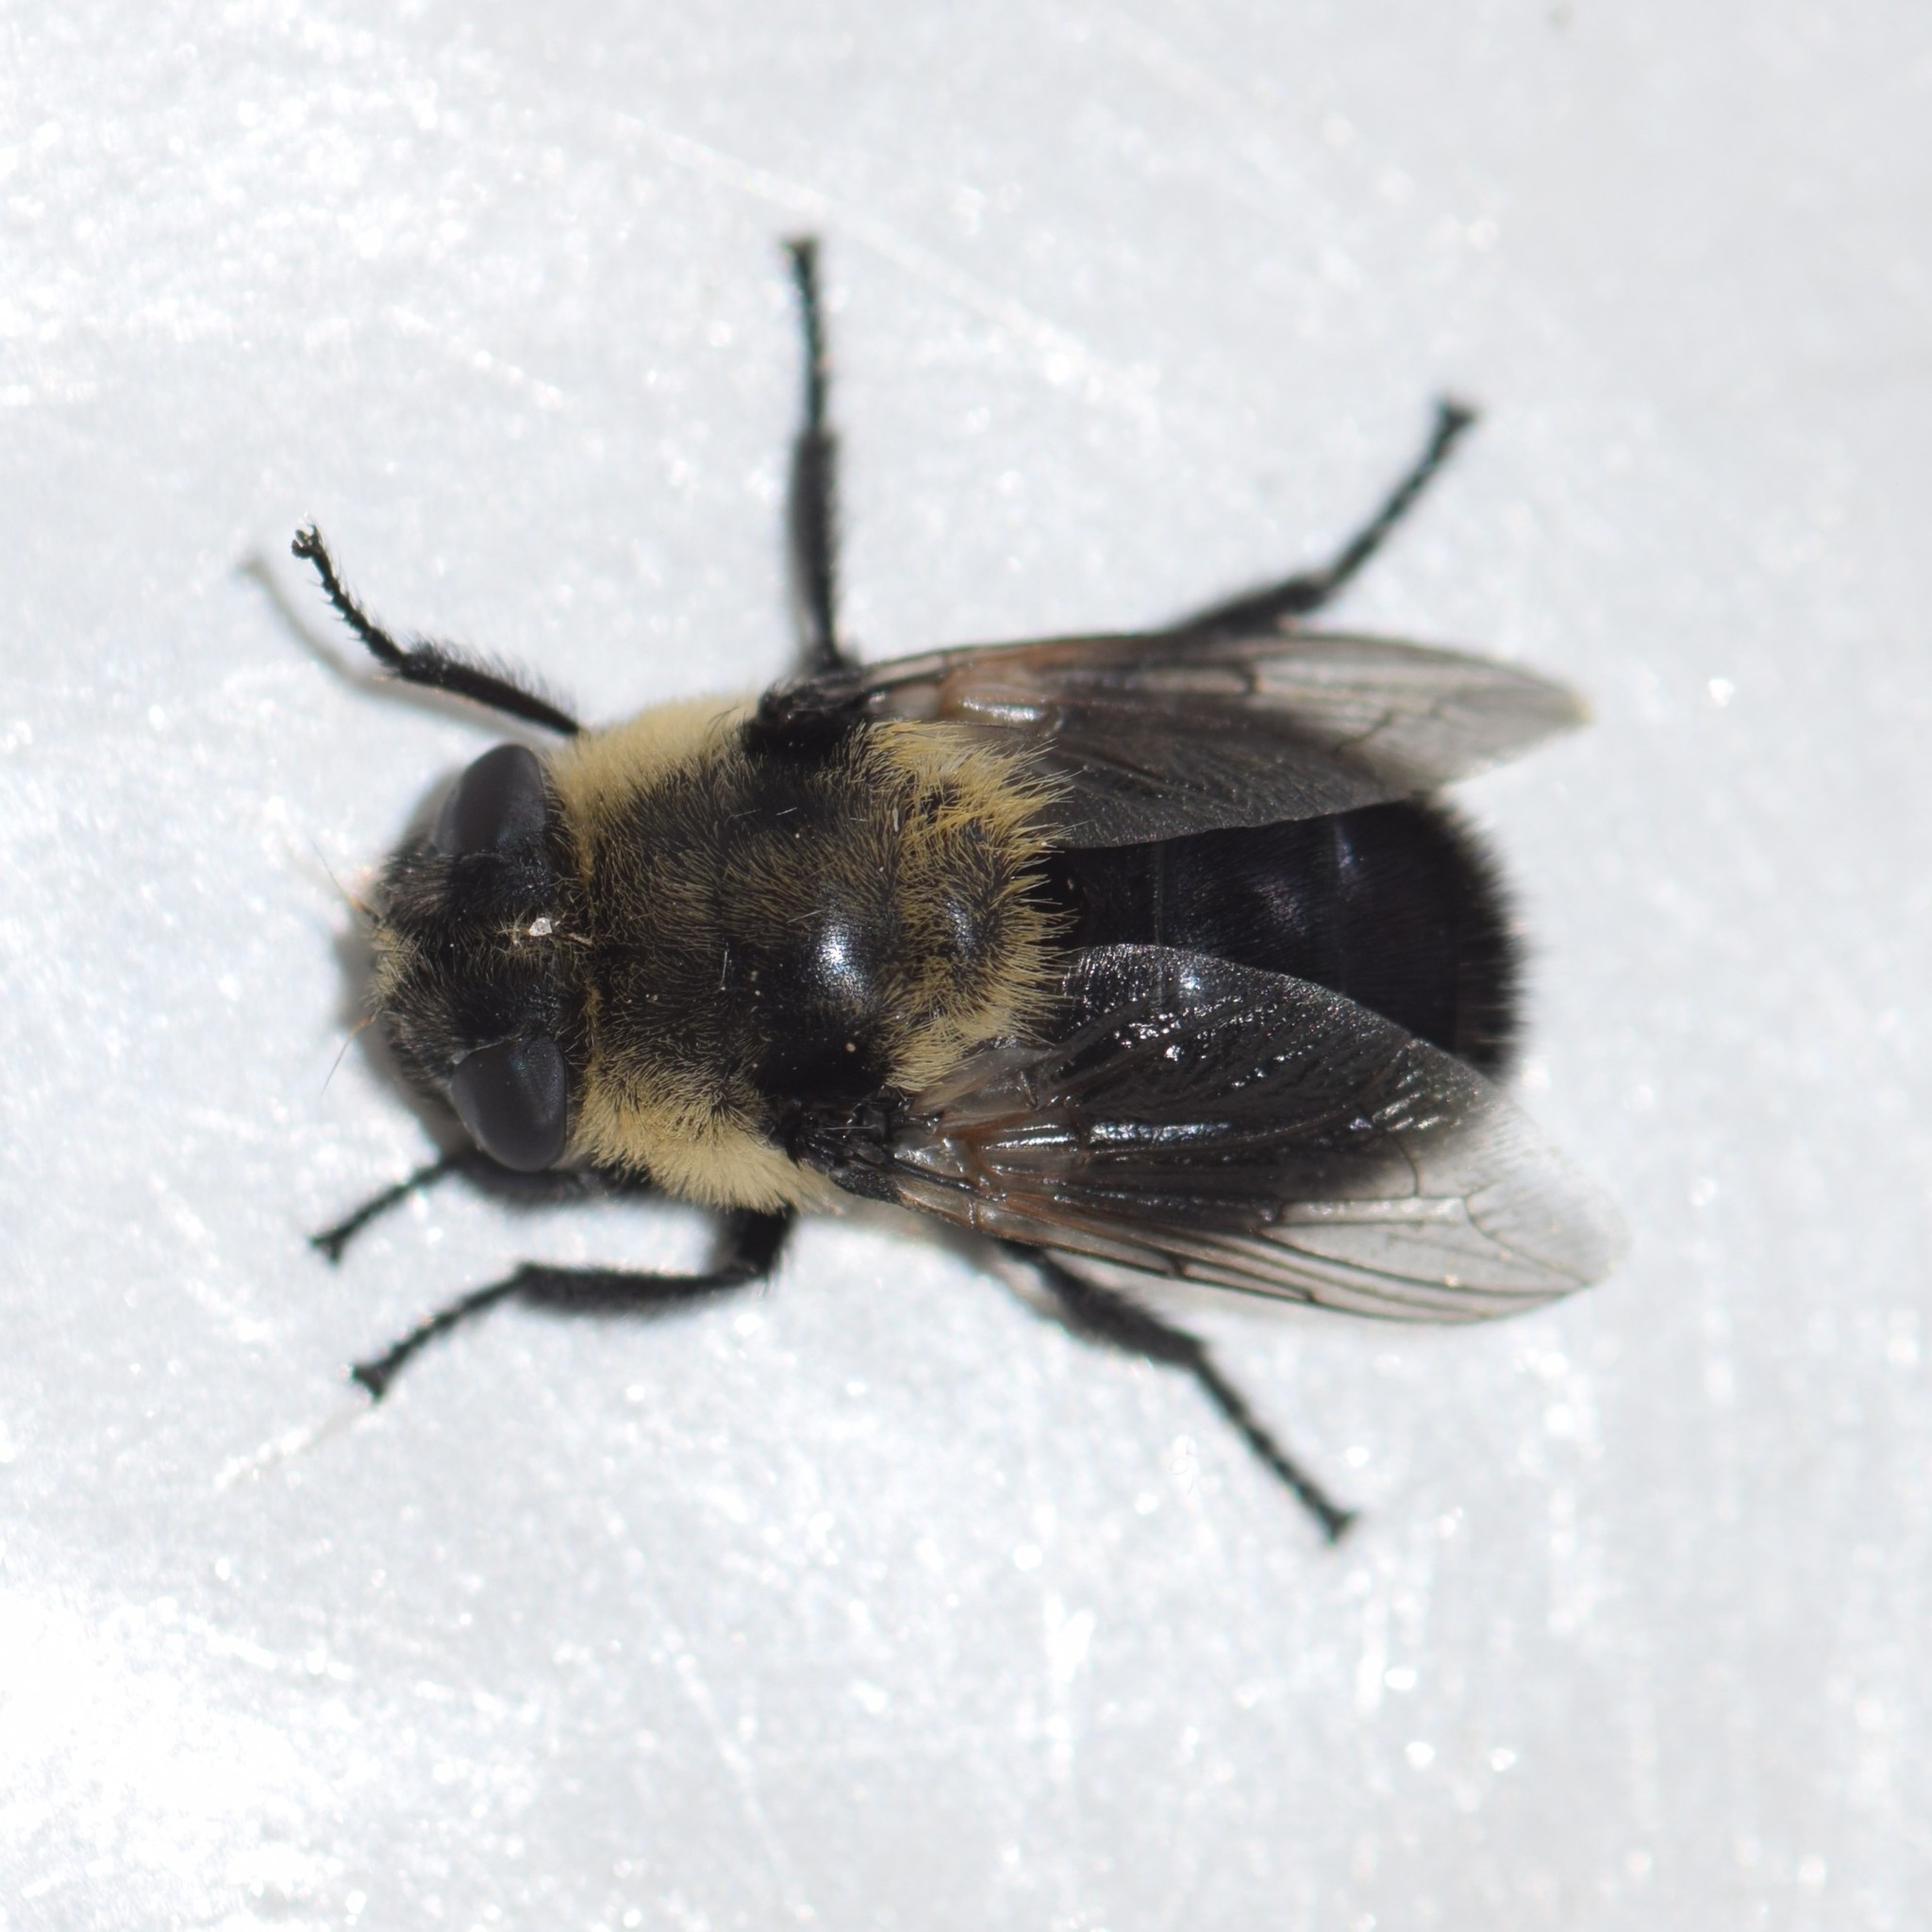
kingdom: Animalia
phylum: Arthropoda
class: Insecta
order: Diptera
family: Oestridae
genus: Cephenemyia
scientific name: Cephenemyia phobifer
